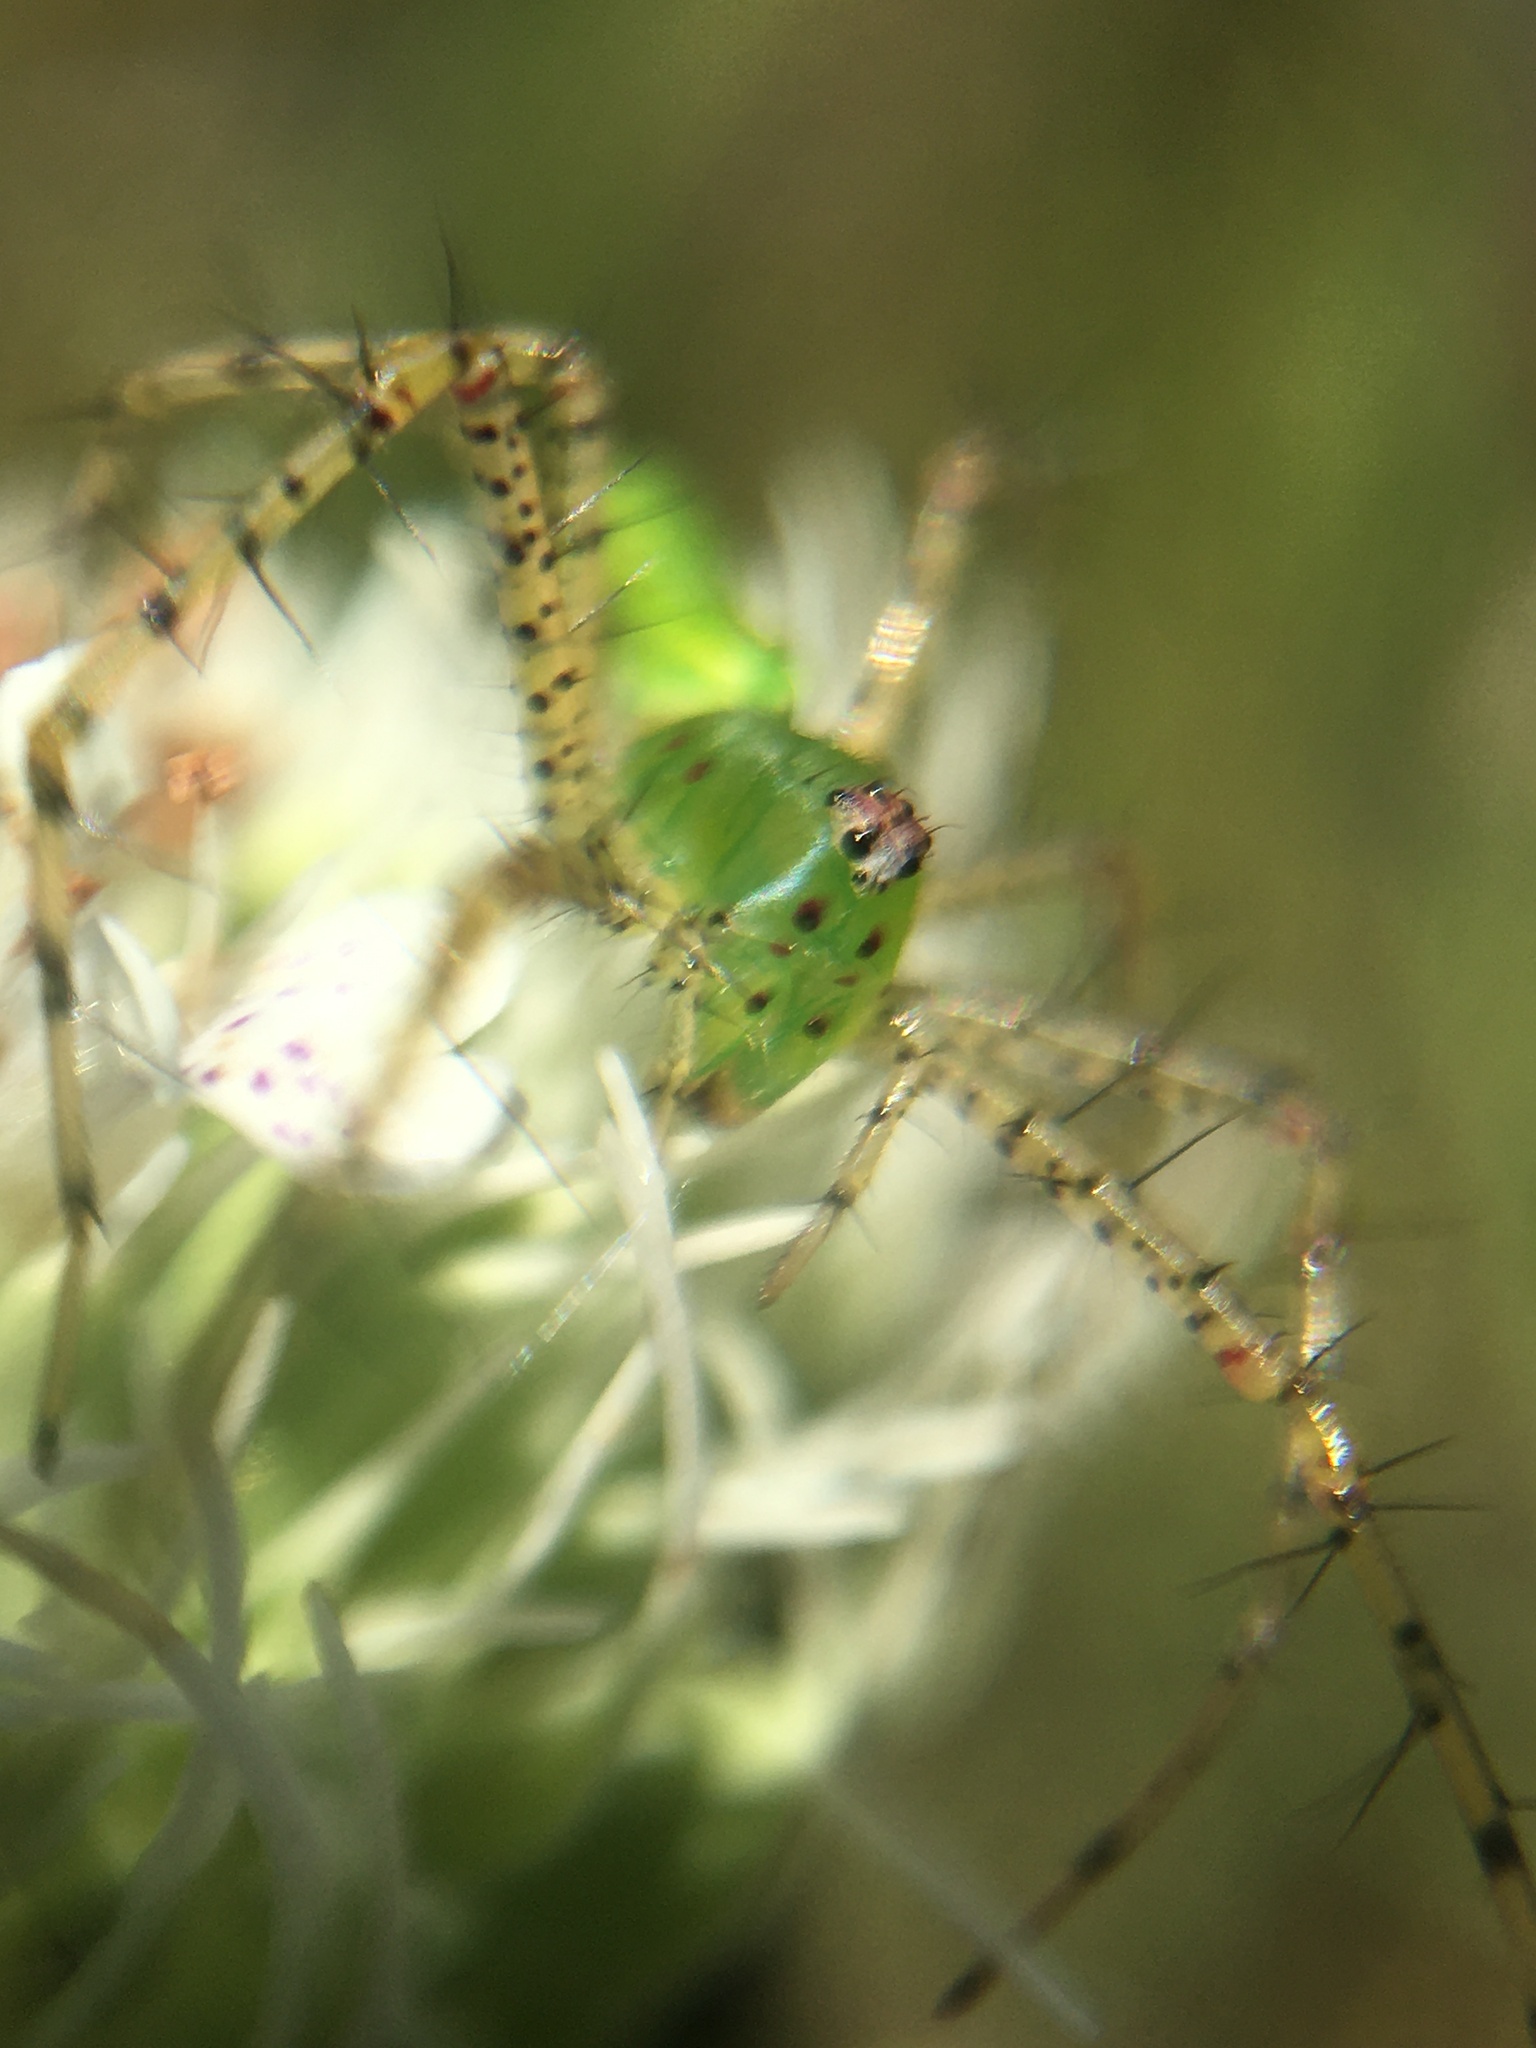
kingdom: Animalia
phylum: Arthropoda
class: Arachnida
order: Araneae
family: Oxyopidae
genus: Peucetia
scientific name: Peucetia viridans
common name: Lynx spiders
